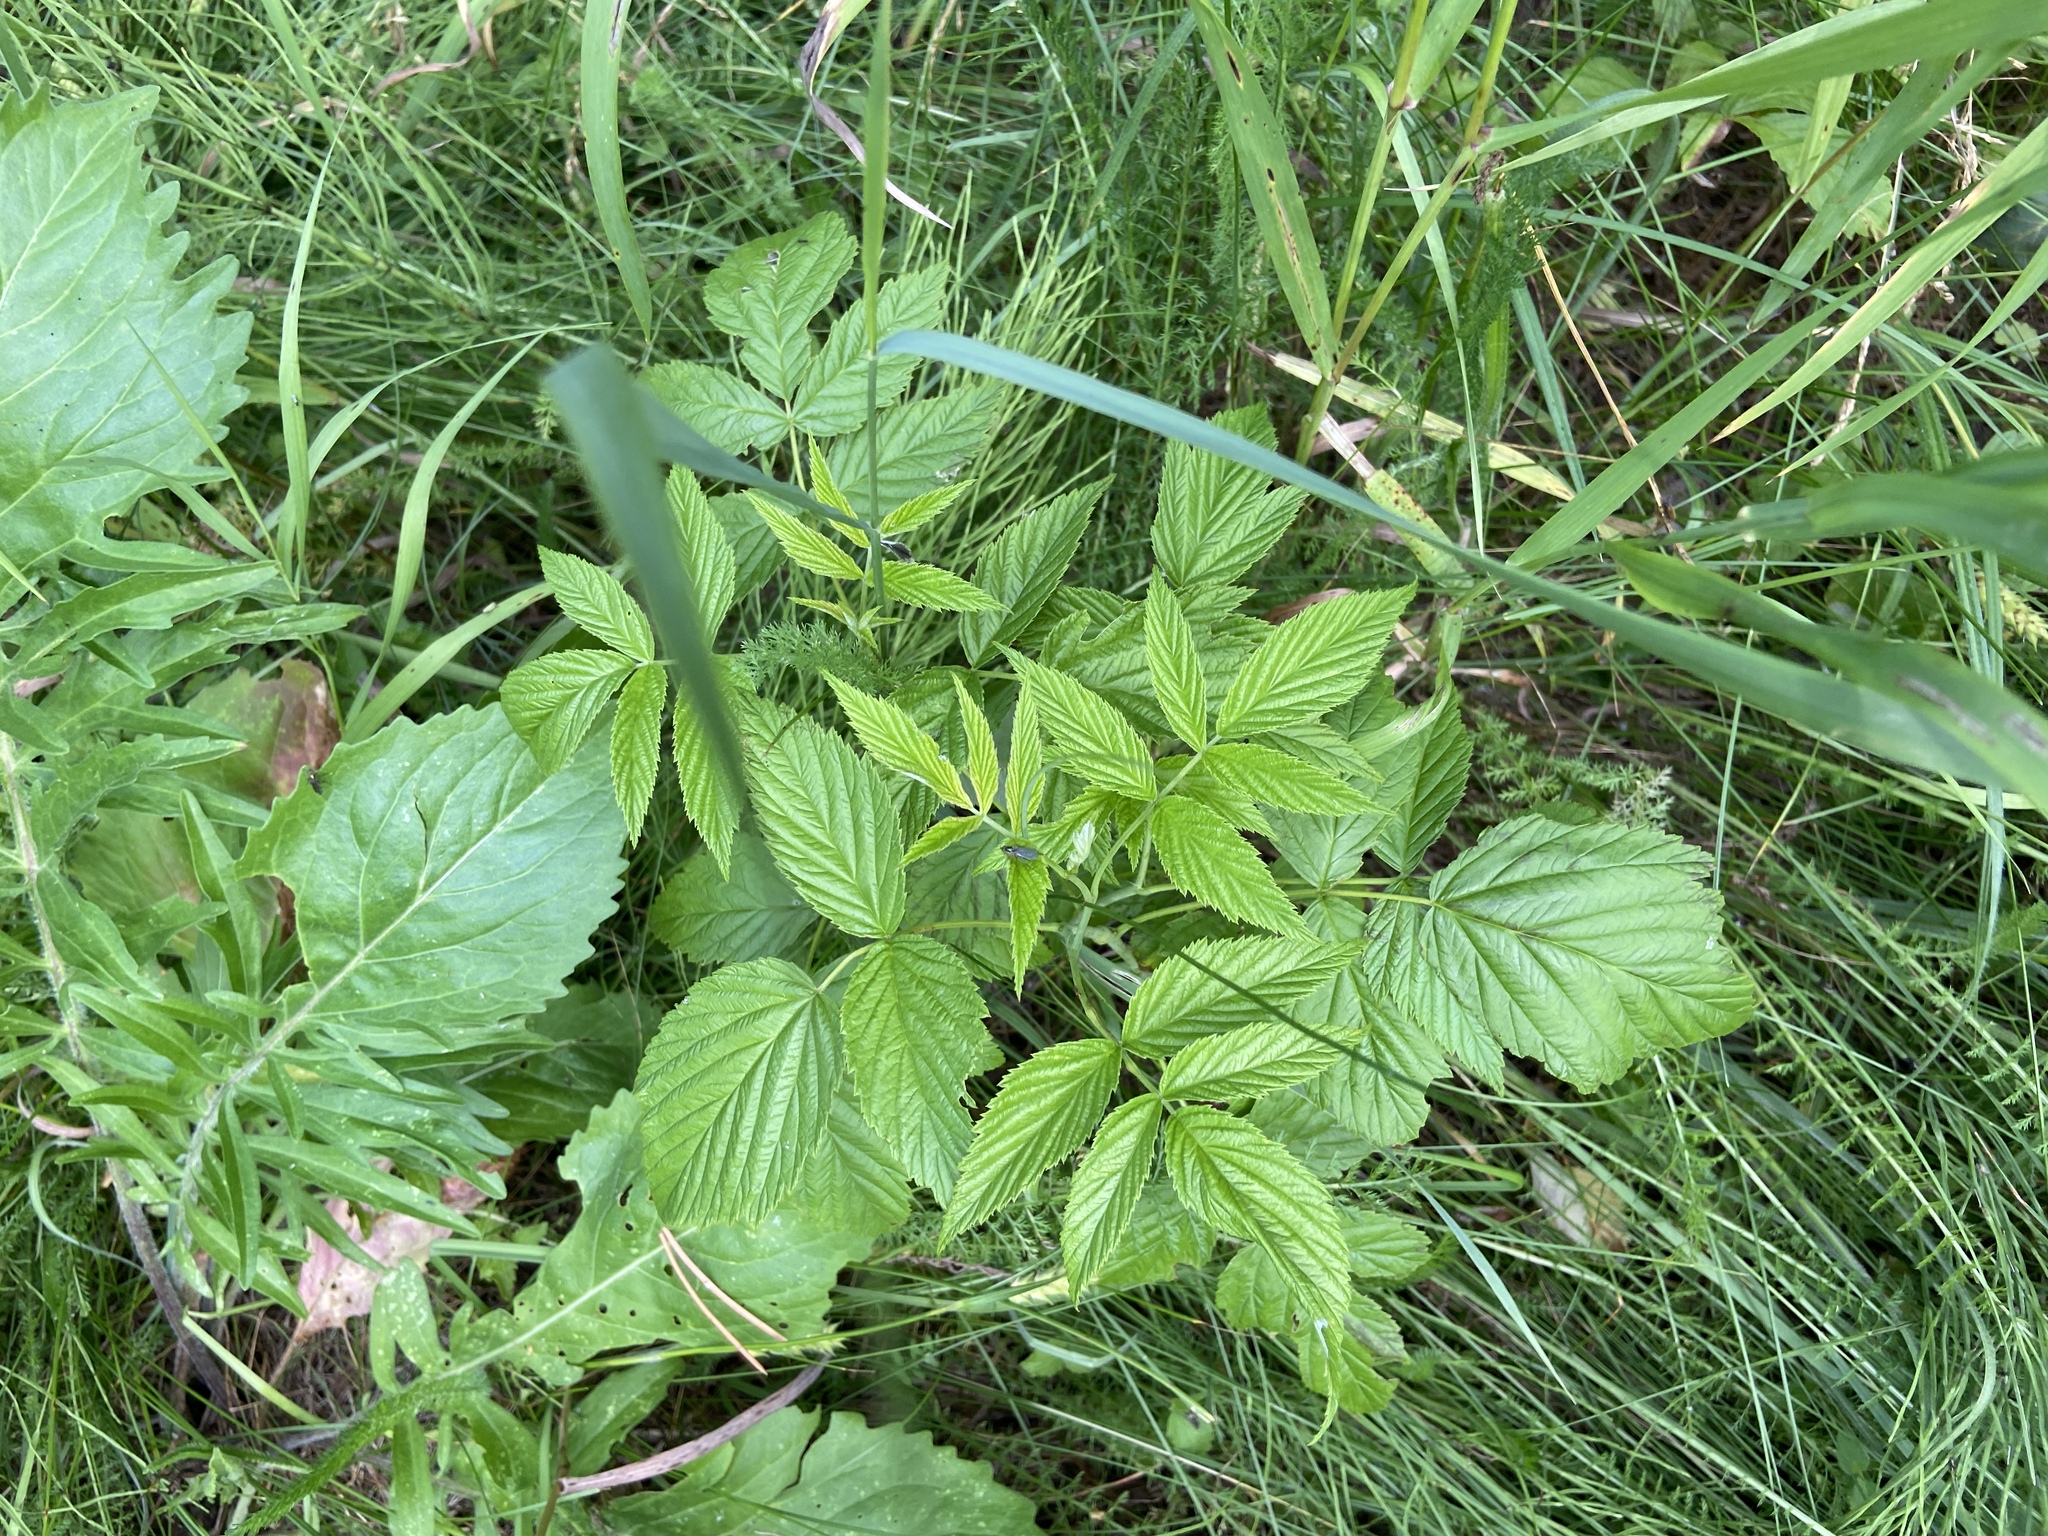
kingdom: Plantae
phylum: Tracheophyta
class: Magnoliopsida
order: Rosales
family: Rosaceae
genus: Rubus
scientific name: Rubus idaeus
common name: Raspberry
